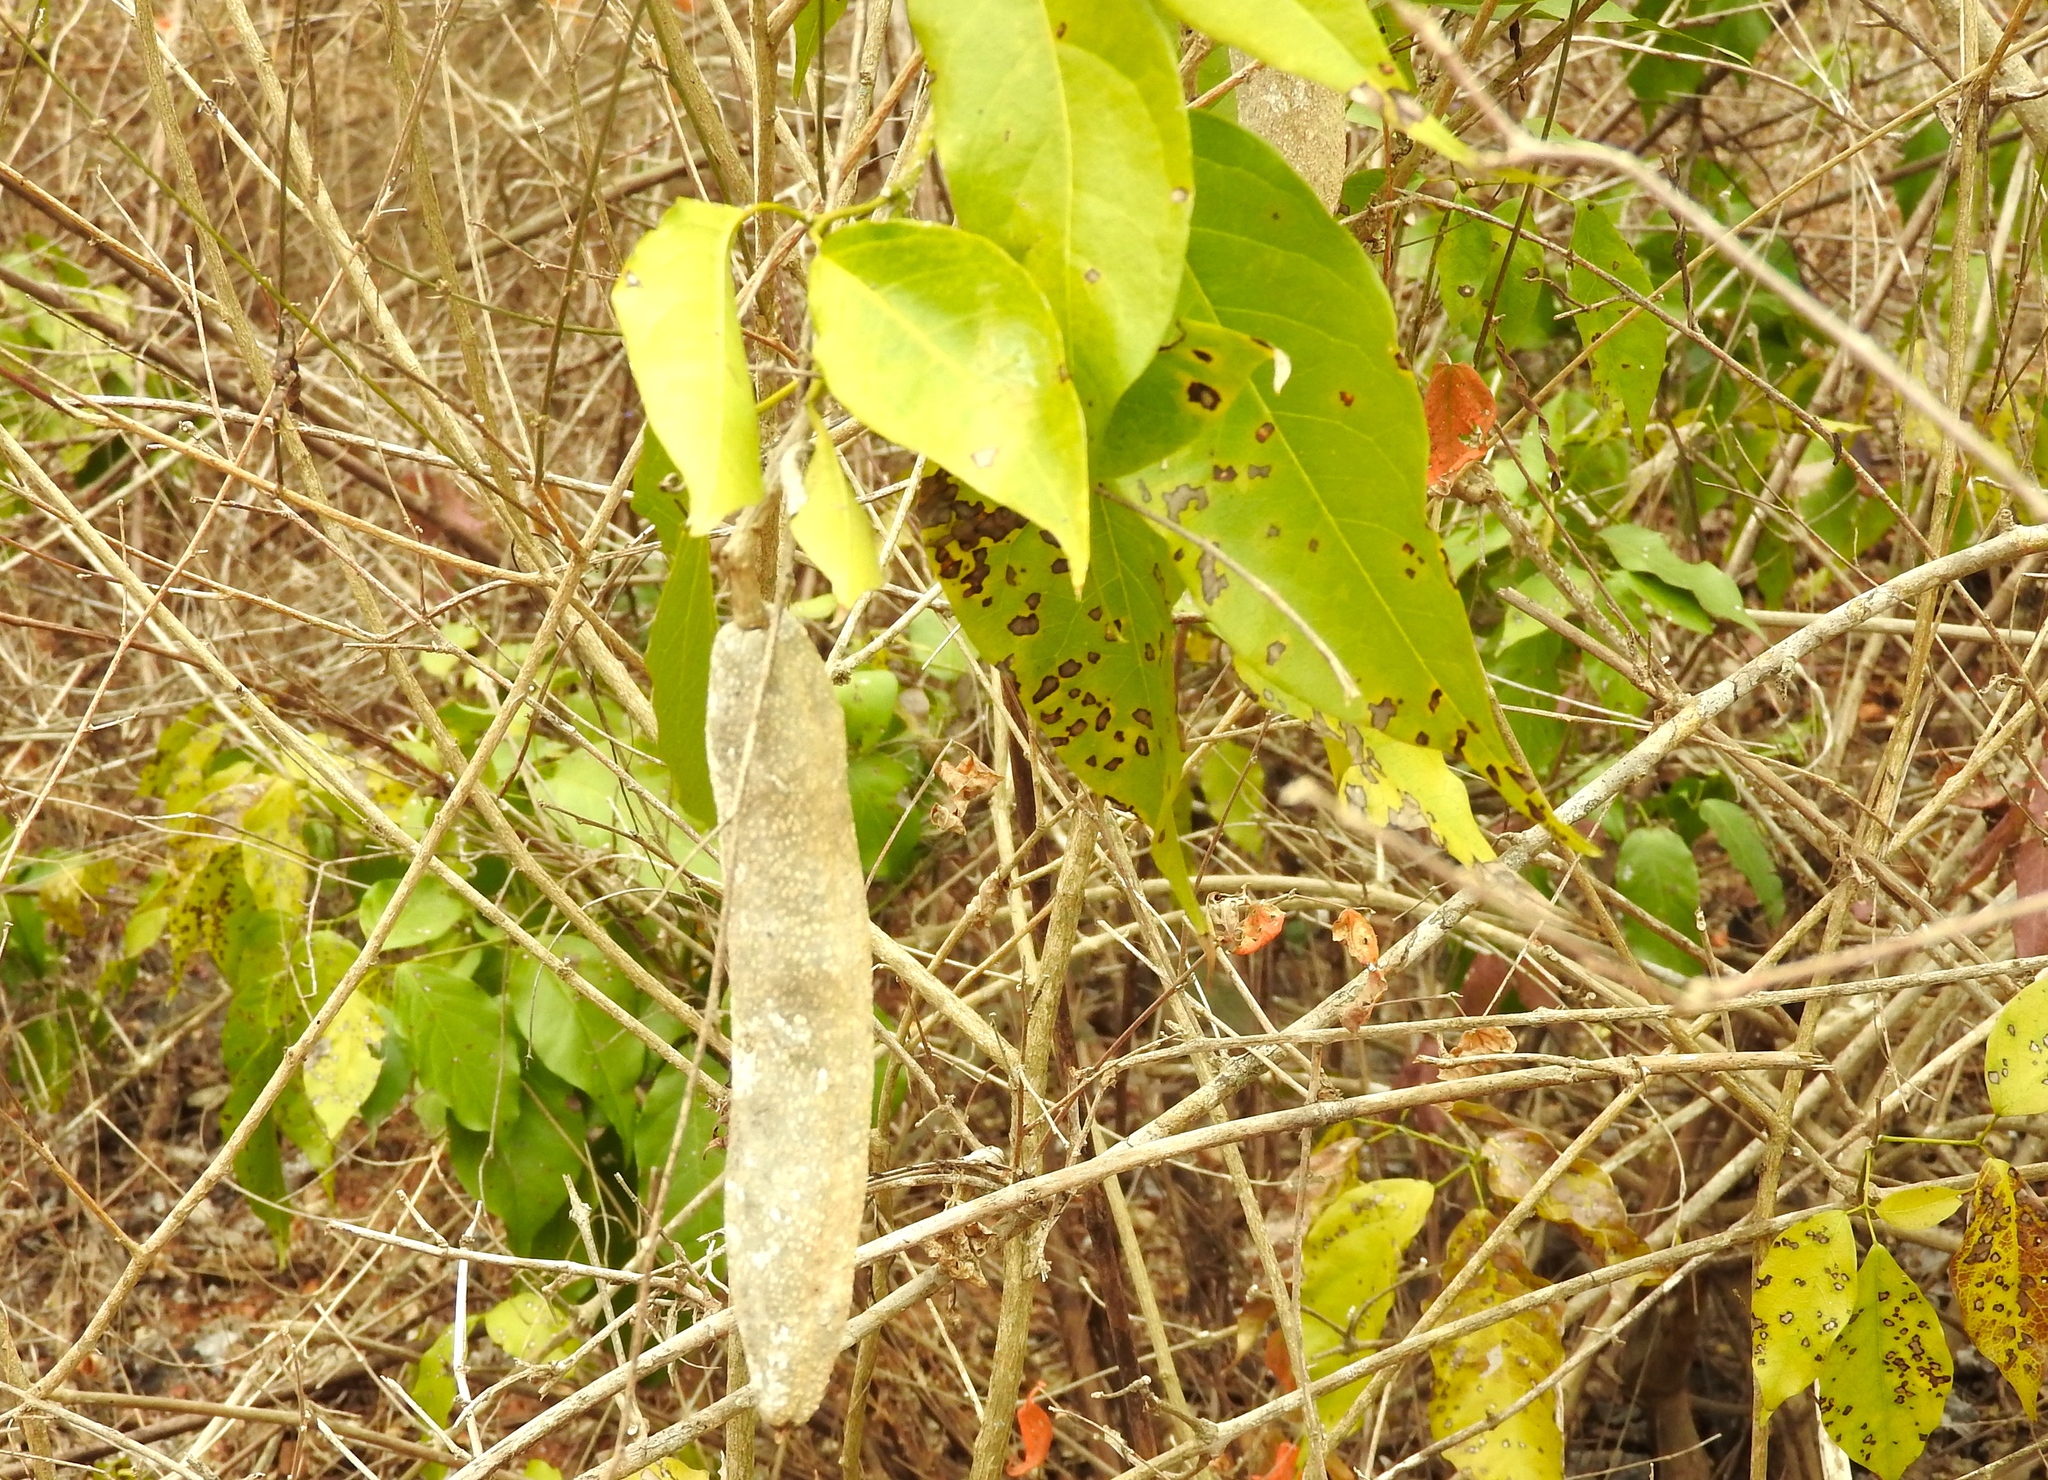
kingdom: Plantae
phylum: Tracheophyta
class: Magnoliopsida
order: Lamiales
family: Bignoniaceae
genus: Adenocalymma
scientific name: Adenocalymma inundatum
